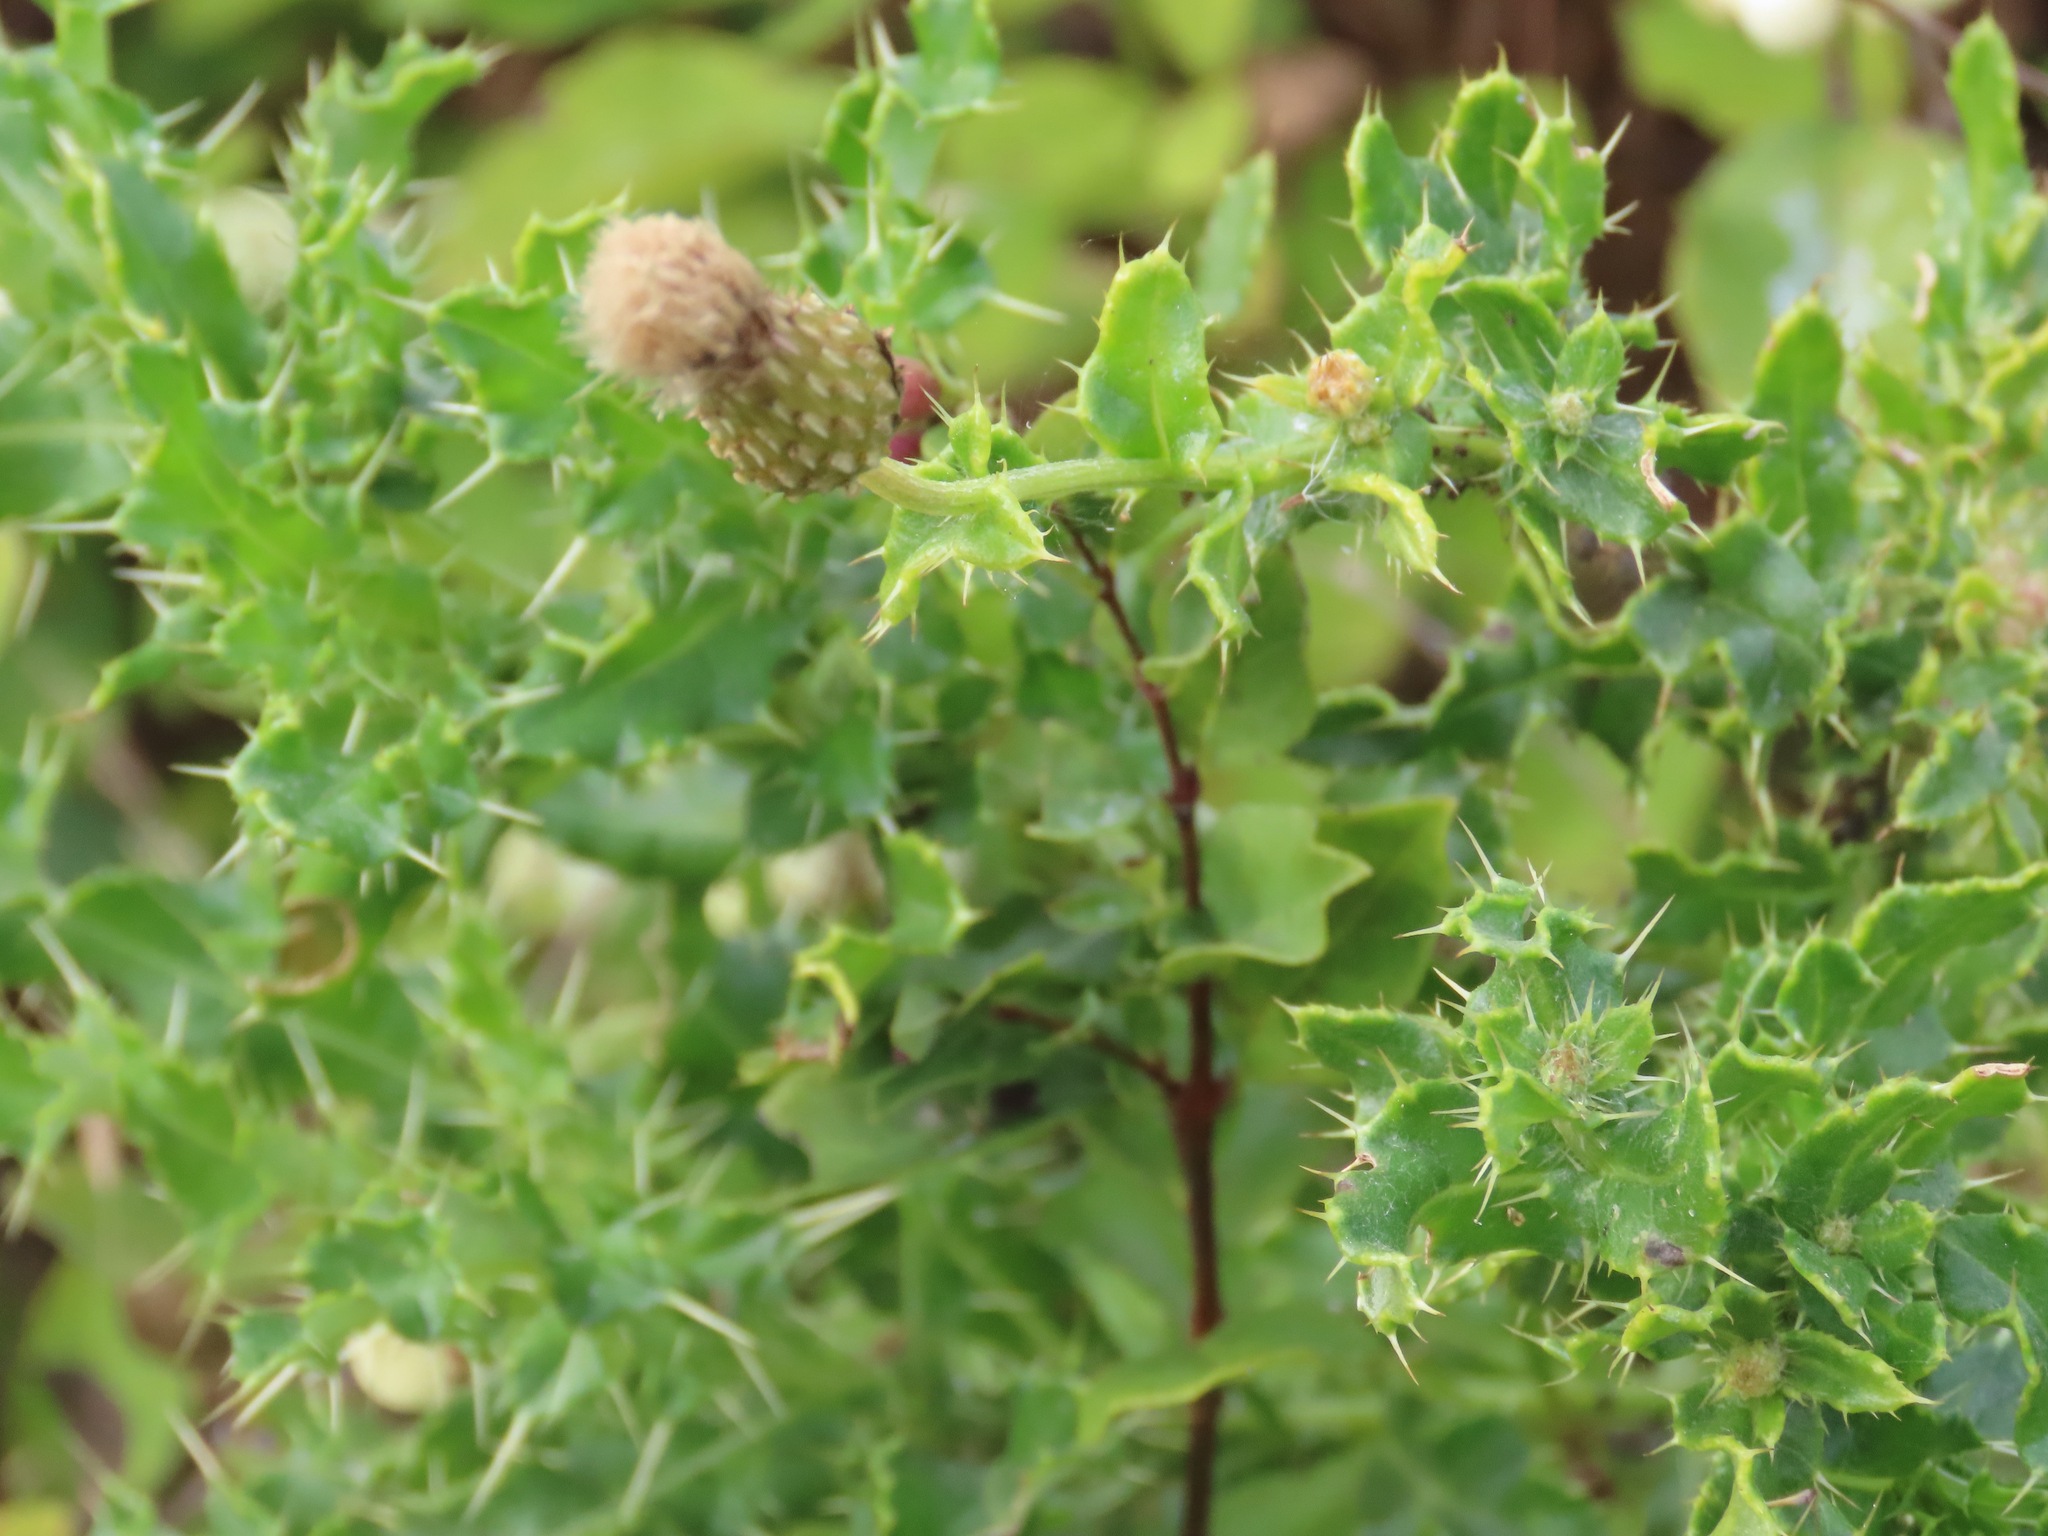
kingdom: Plantae
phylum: Tracheophyta
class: Magnoliopsida
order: Asterales
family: Asteraceae
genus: Cirsium
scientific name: Cirsium arvense
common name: Creeping thistle
